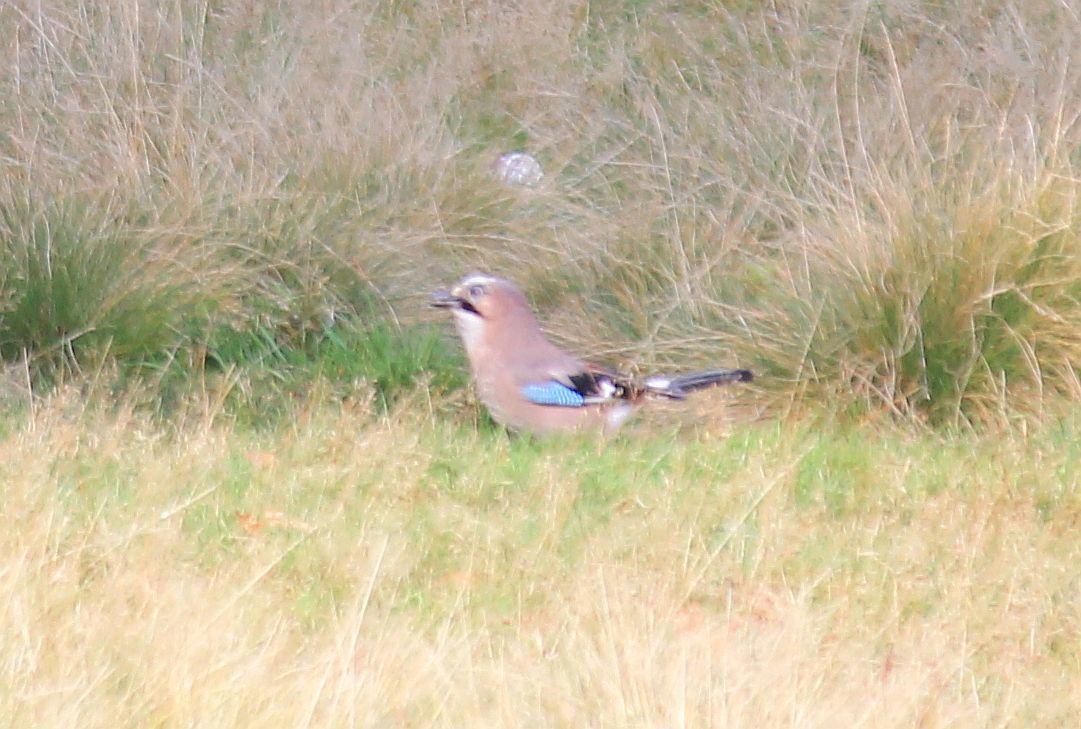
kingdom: Animalia
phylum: Chordata
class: Aves
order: Passeriformes
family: Corvidae
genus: Garrulus
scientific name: Garrulus glandarius
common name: Eurasian jay
